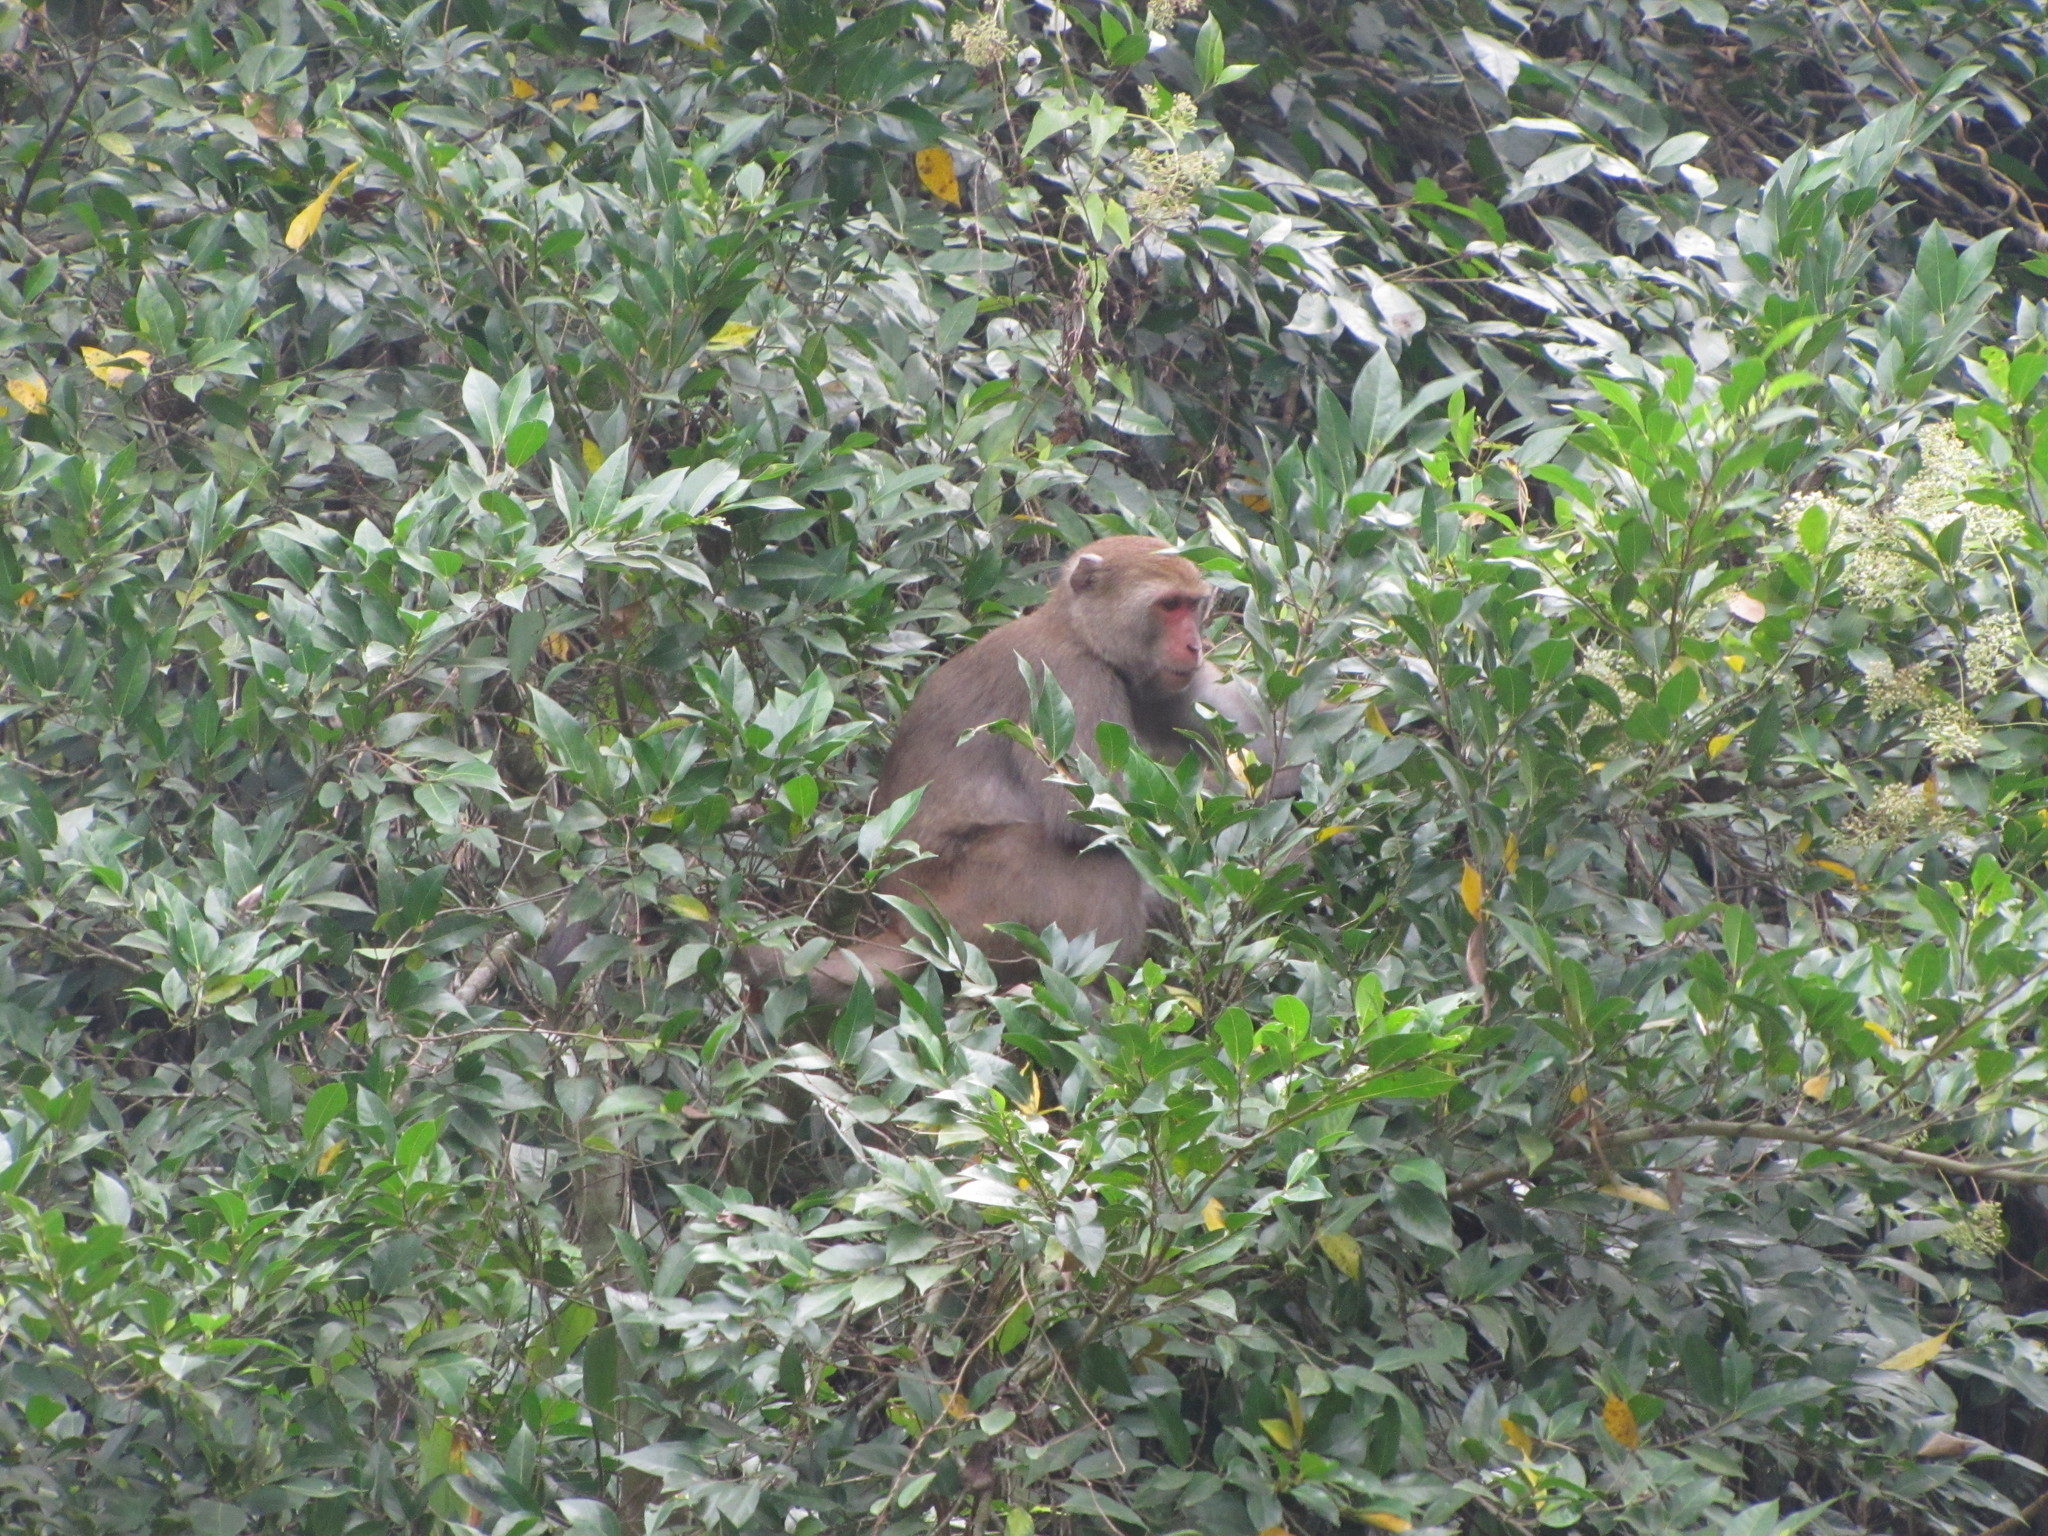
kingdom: Animalia
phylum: Chordata
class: Mammalia
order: Primates
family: Cercopithecidae
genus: Macaca
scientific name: Macaca cyclopis
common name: Formosan rock macaque
